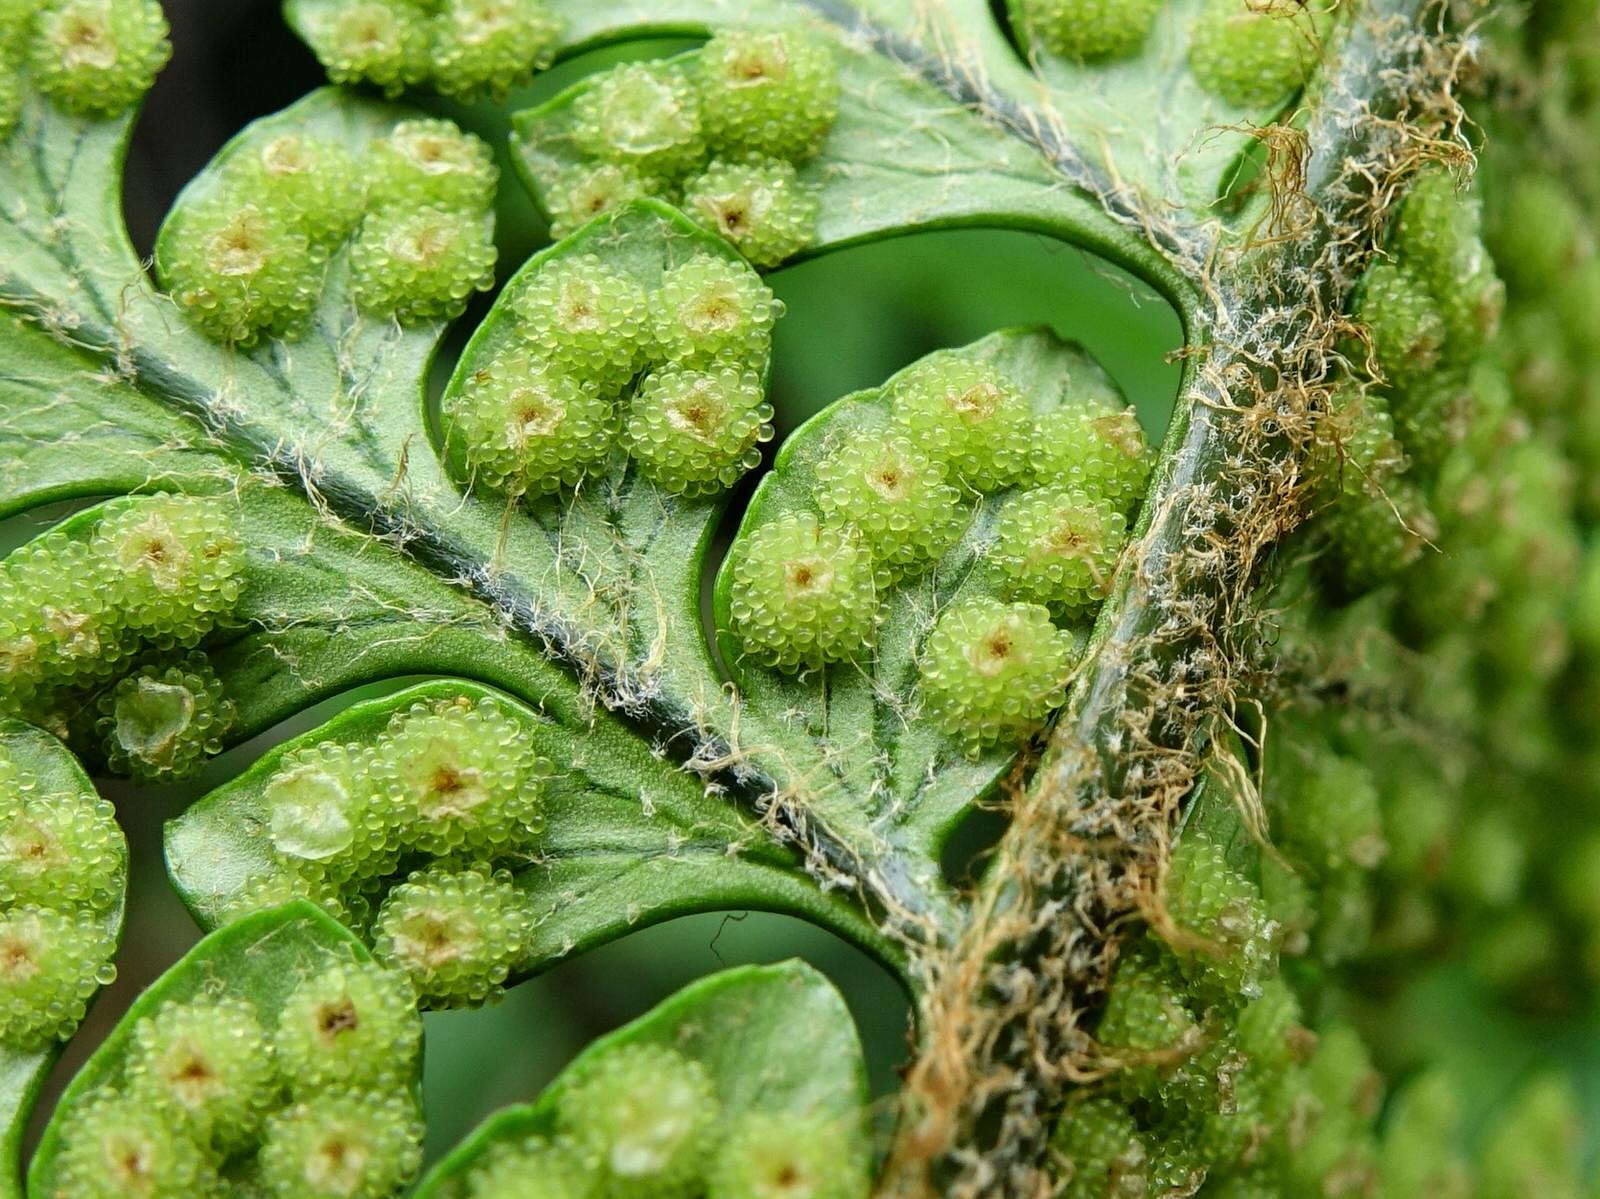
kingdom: Plantae
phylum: Tracheophyta
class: Polypodiopsida
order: Polypodiales
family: Dryopteridaceae
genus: Polystichum
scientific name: Polystichum wawranum
